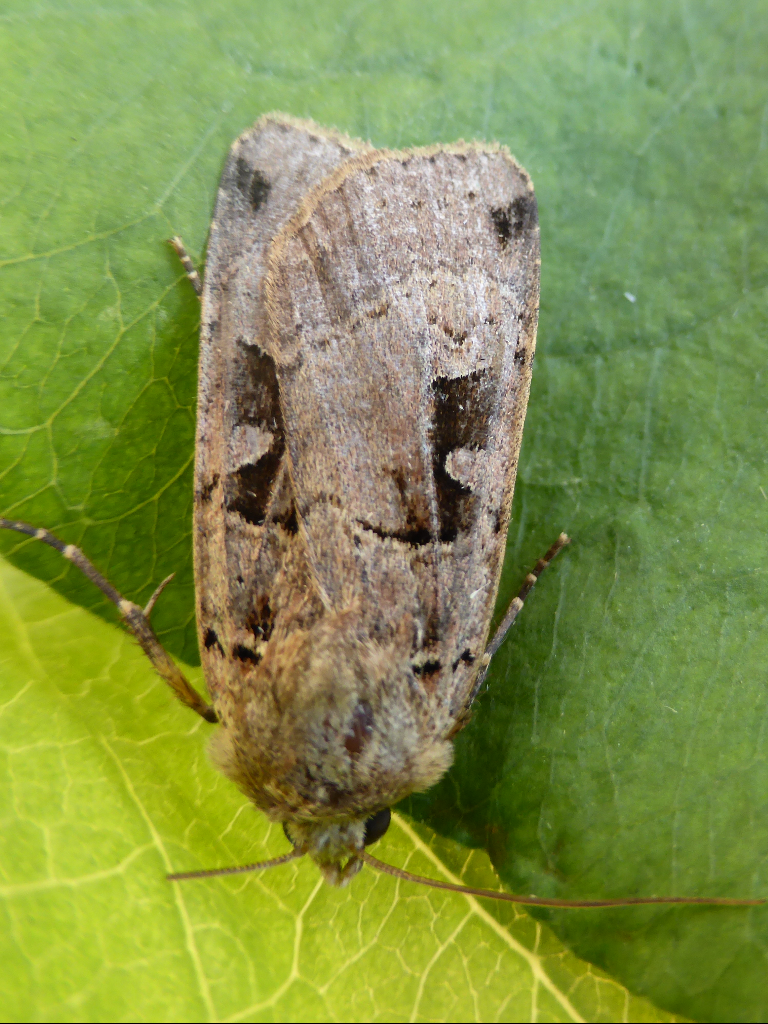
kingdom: Animalia
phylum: Arthropoda
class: Insecta
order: Lepidoptera
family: Noctuidae
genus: Xestia
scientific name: Xestia triangulum
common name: Double square-spot
